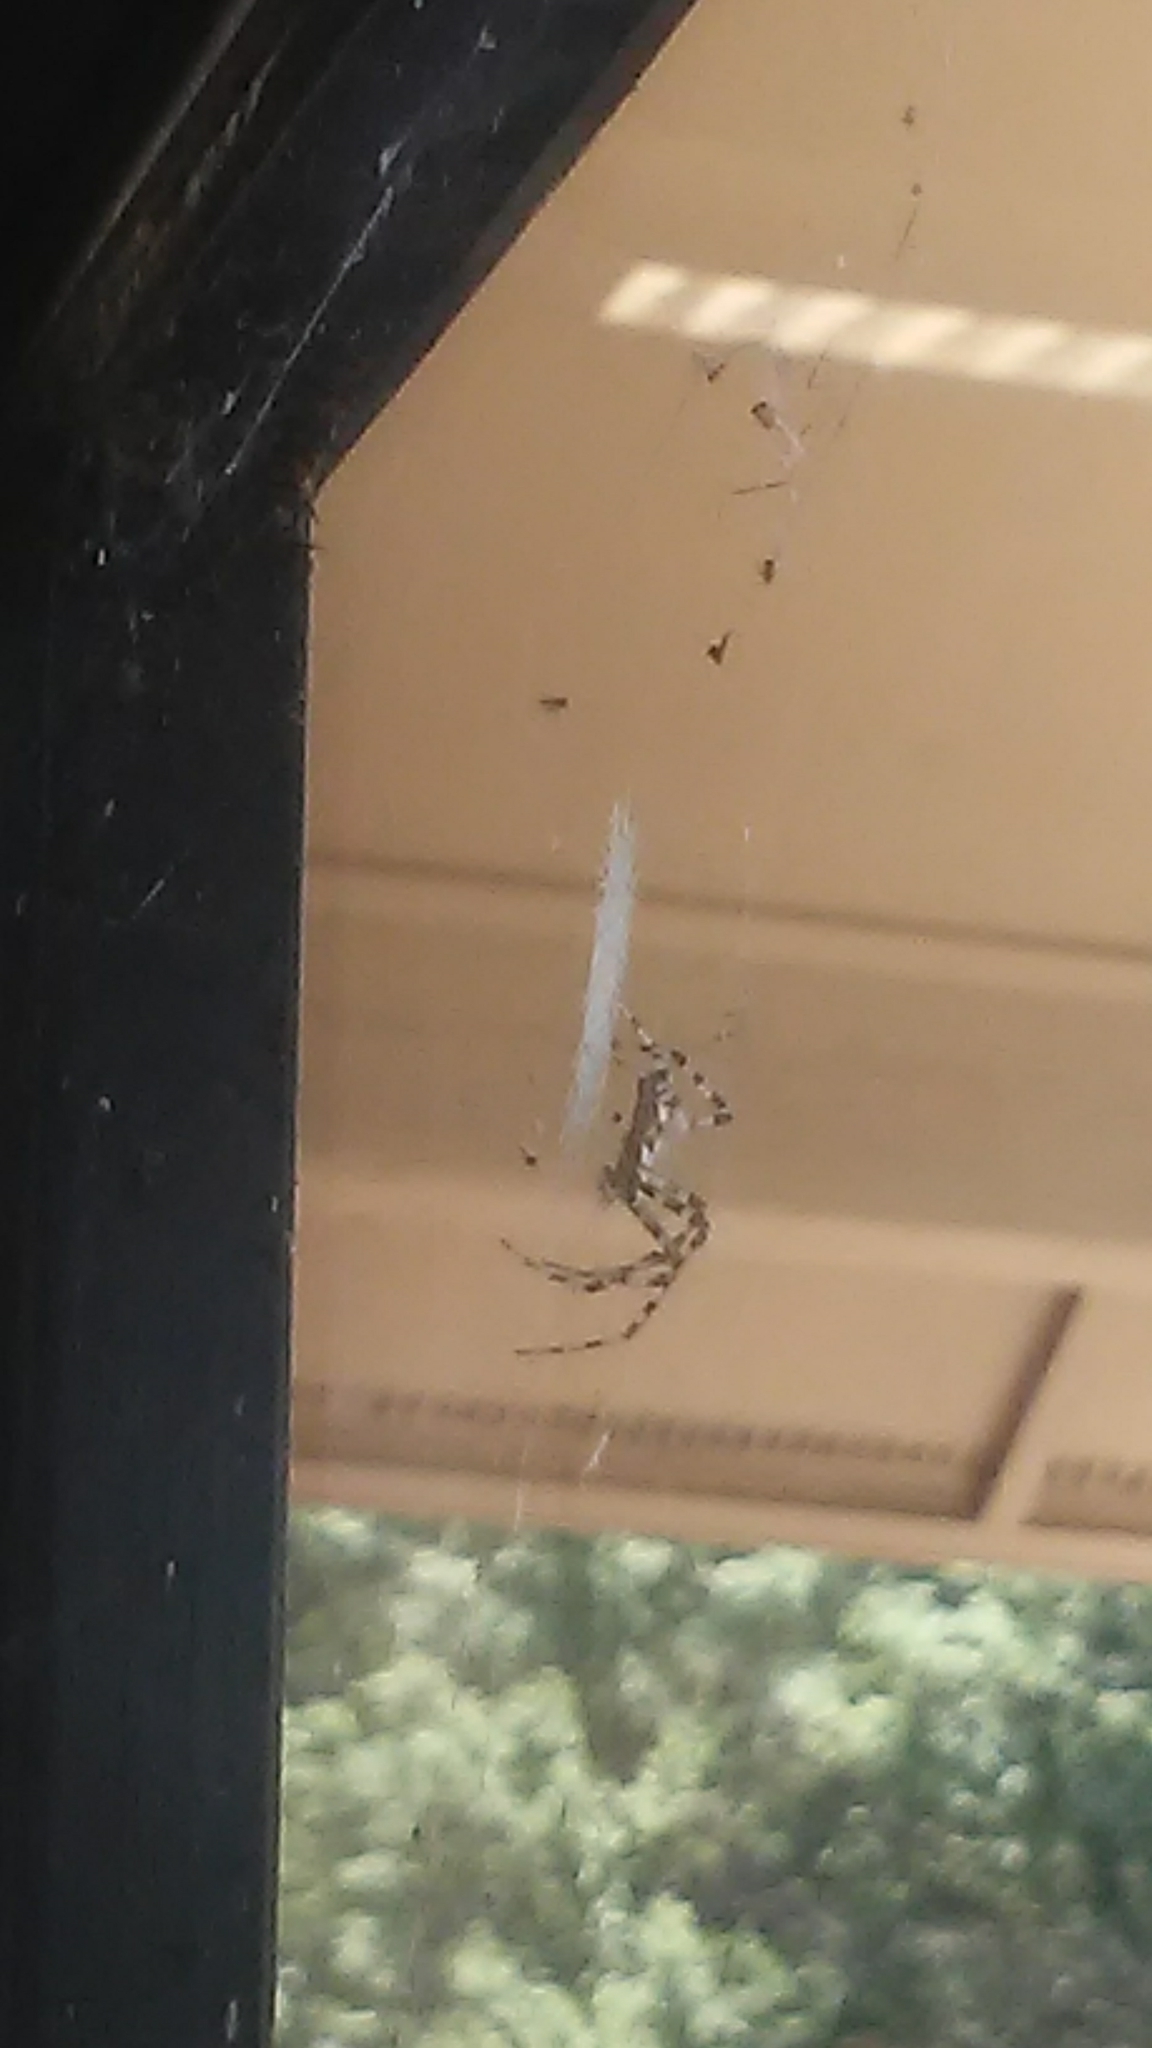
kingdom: Animalia
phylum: Arthropoda
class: Arachnida
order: Araneae
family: Araneidae
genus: Argiope
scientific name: Argiope aurantia
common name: Orb weavers
